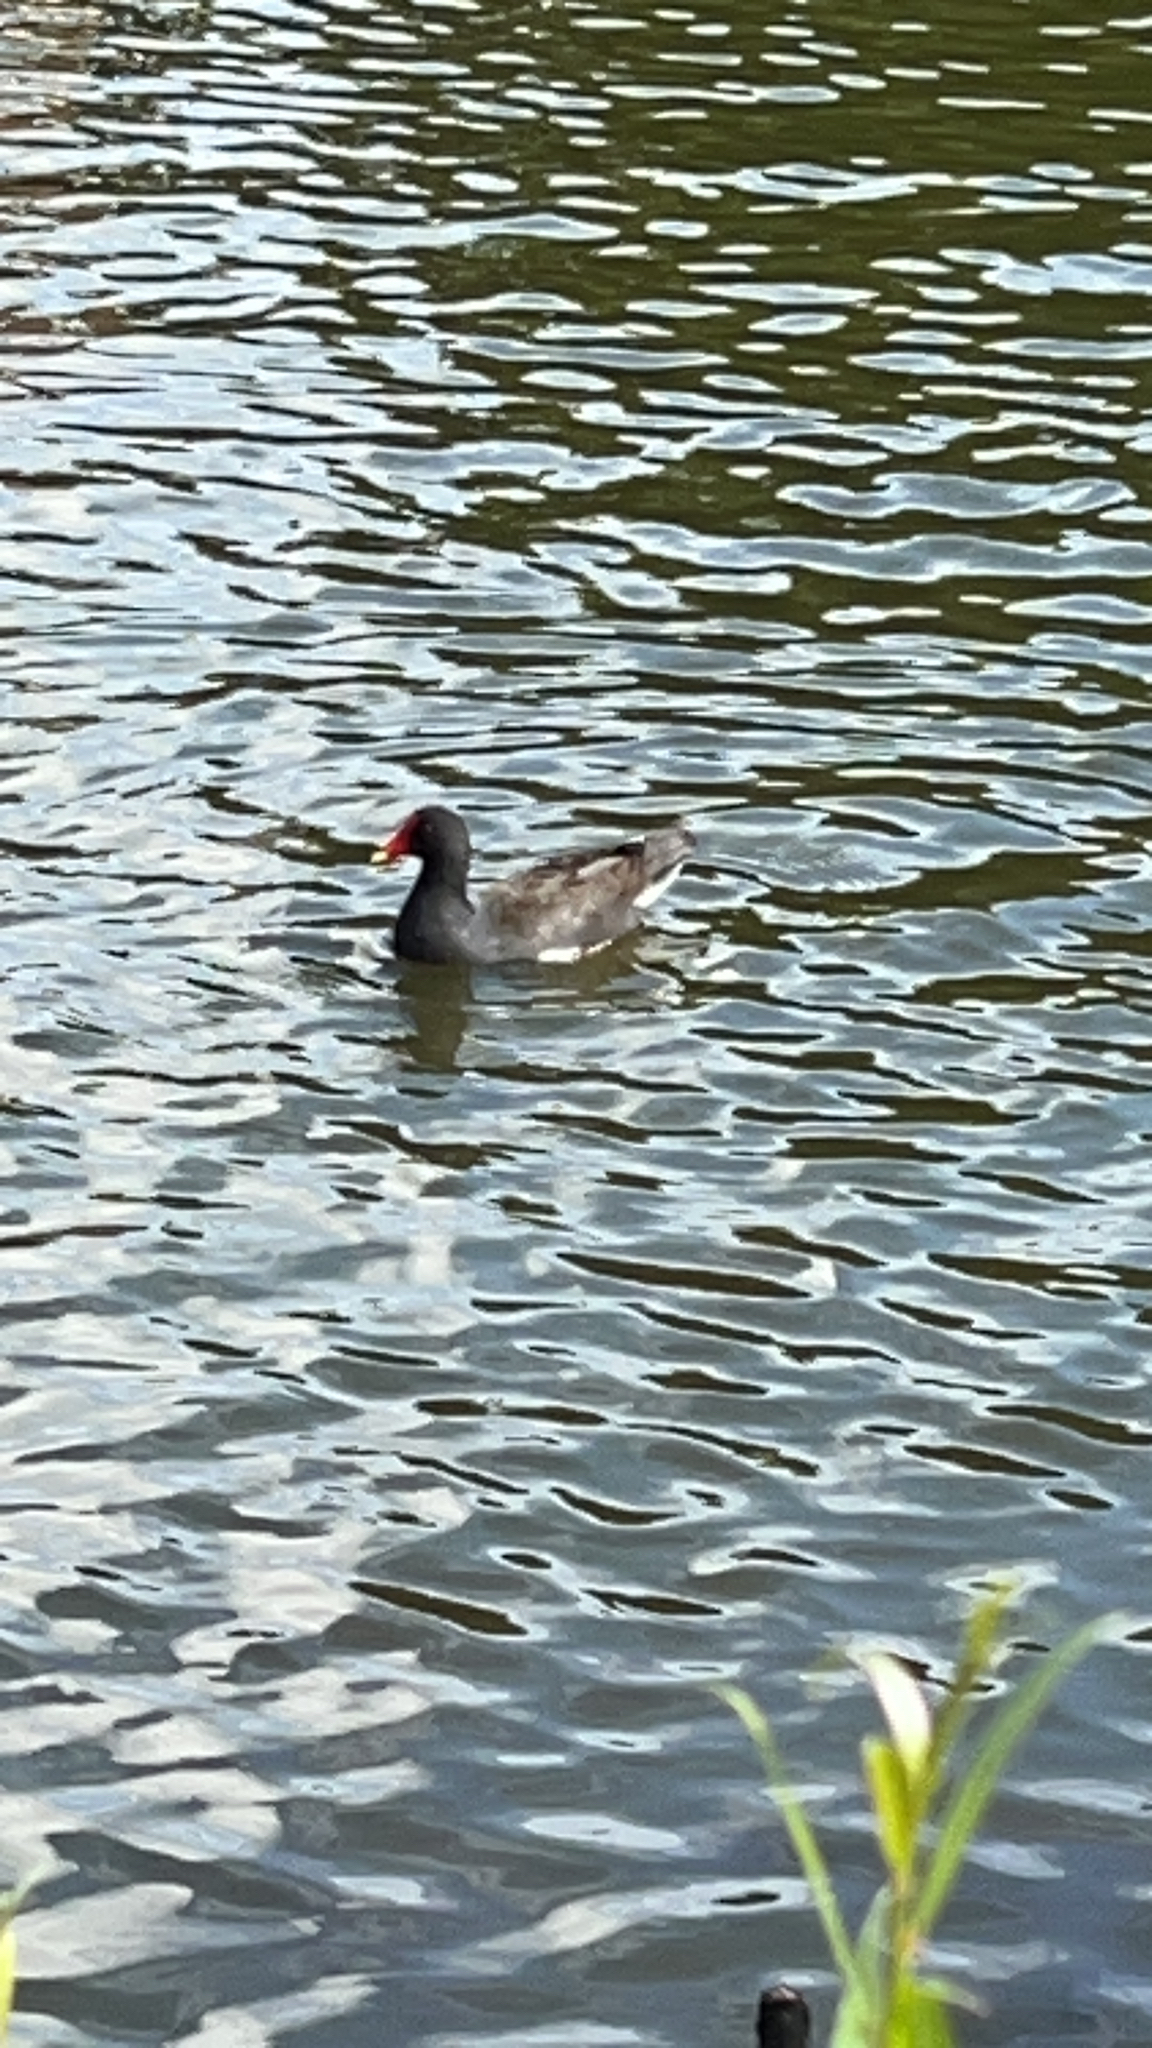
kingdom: Animalia
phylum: Chordata
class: Aves
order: Gruiformes
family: Rallidae
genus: Gallinula
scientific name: Gallinula chloropus
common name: Common moorhen
